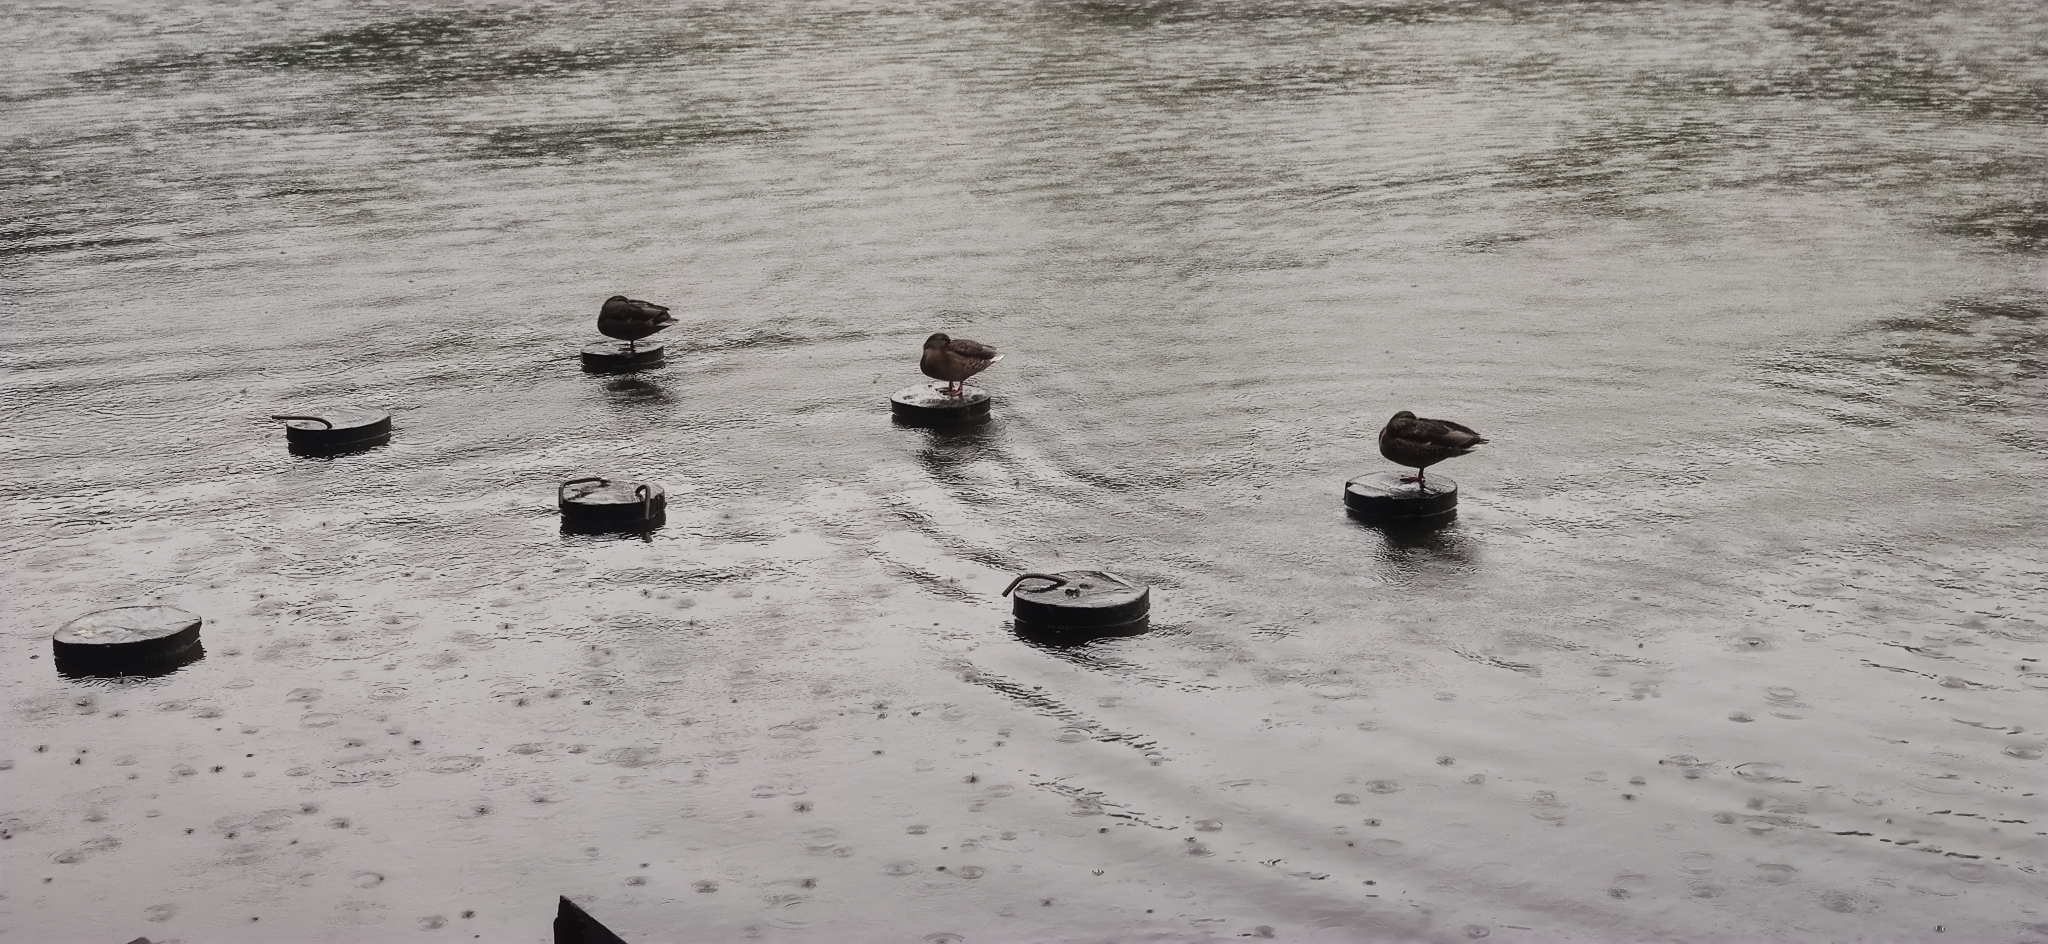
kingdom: Animalia
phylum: Chordata
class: Aves
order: Anseriformes
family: Anatidae
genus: Anas
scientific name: Anas platyrhynchos
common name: Mallard
